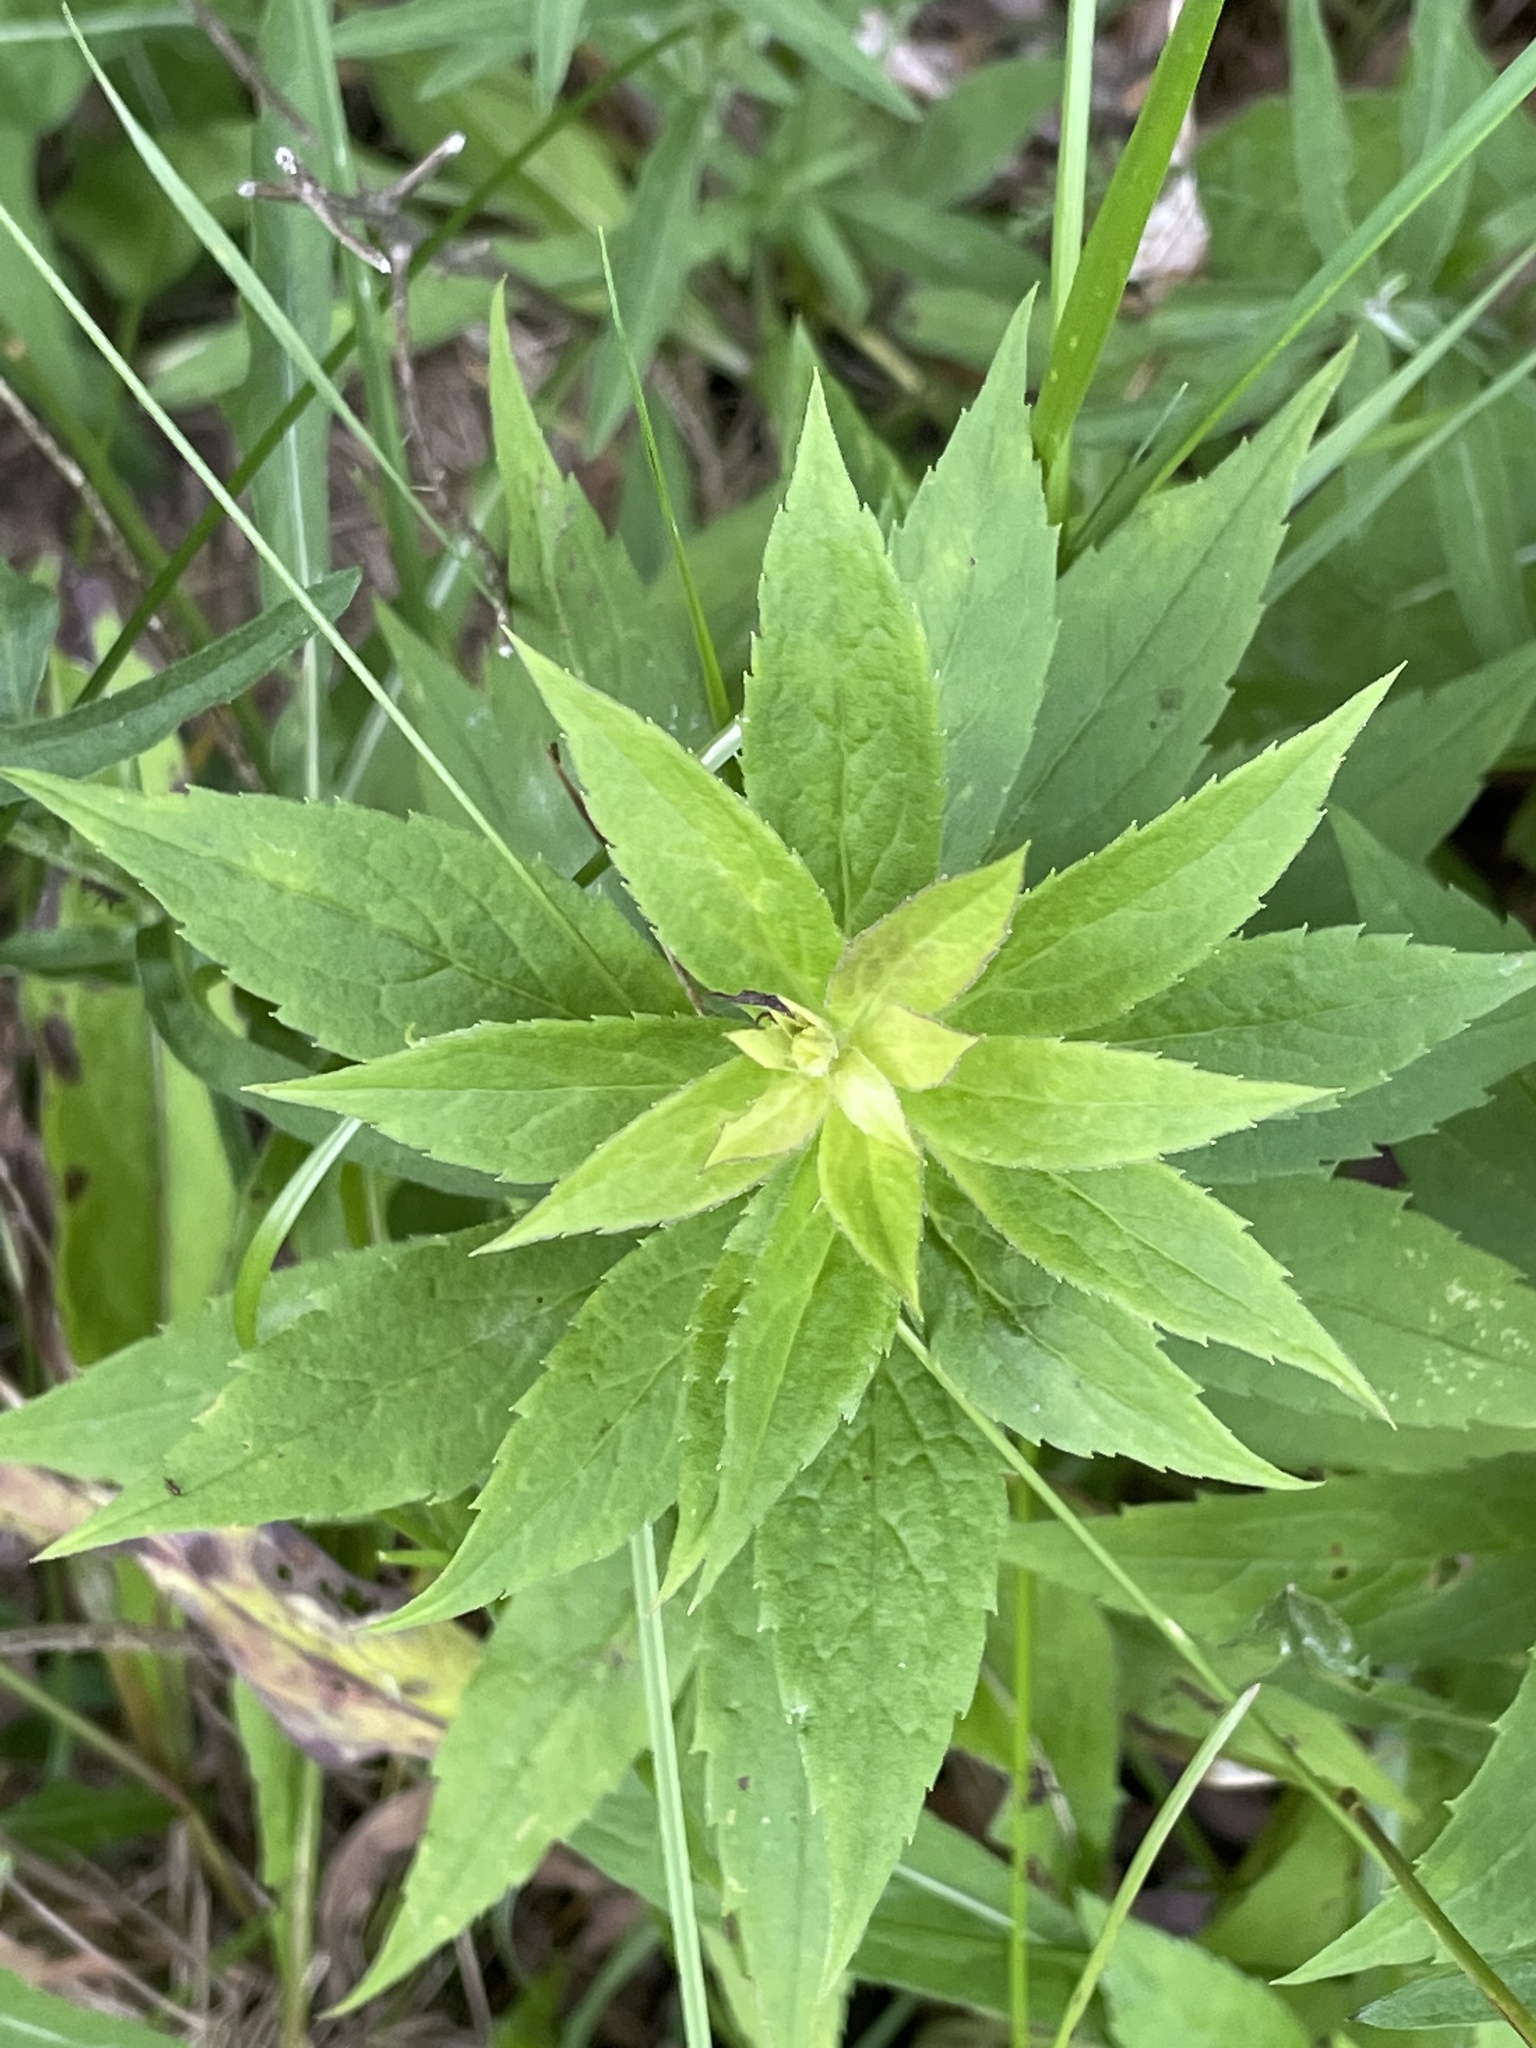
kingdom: Plantae
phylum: Tracheophyta
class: Magnoliopsida
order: Asterales
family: Asteraceae
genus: Solidago
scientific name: Solidago rugosa
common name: Rough-stemmed goldenrod
